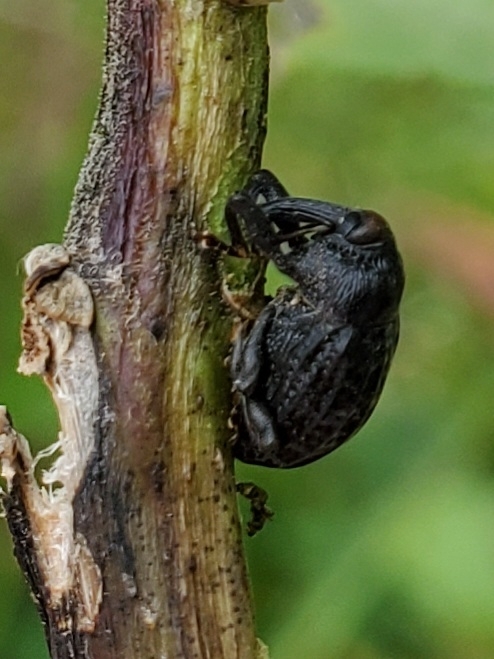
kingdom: Animalia
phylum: Arthropoda
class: Insecta
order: Coleoptera
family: Curculionidae
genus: Rhyssomatus
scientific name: Rhyssomatus lineaticollis
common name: Milkweed stem weevil
